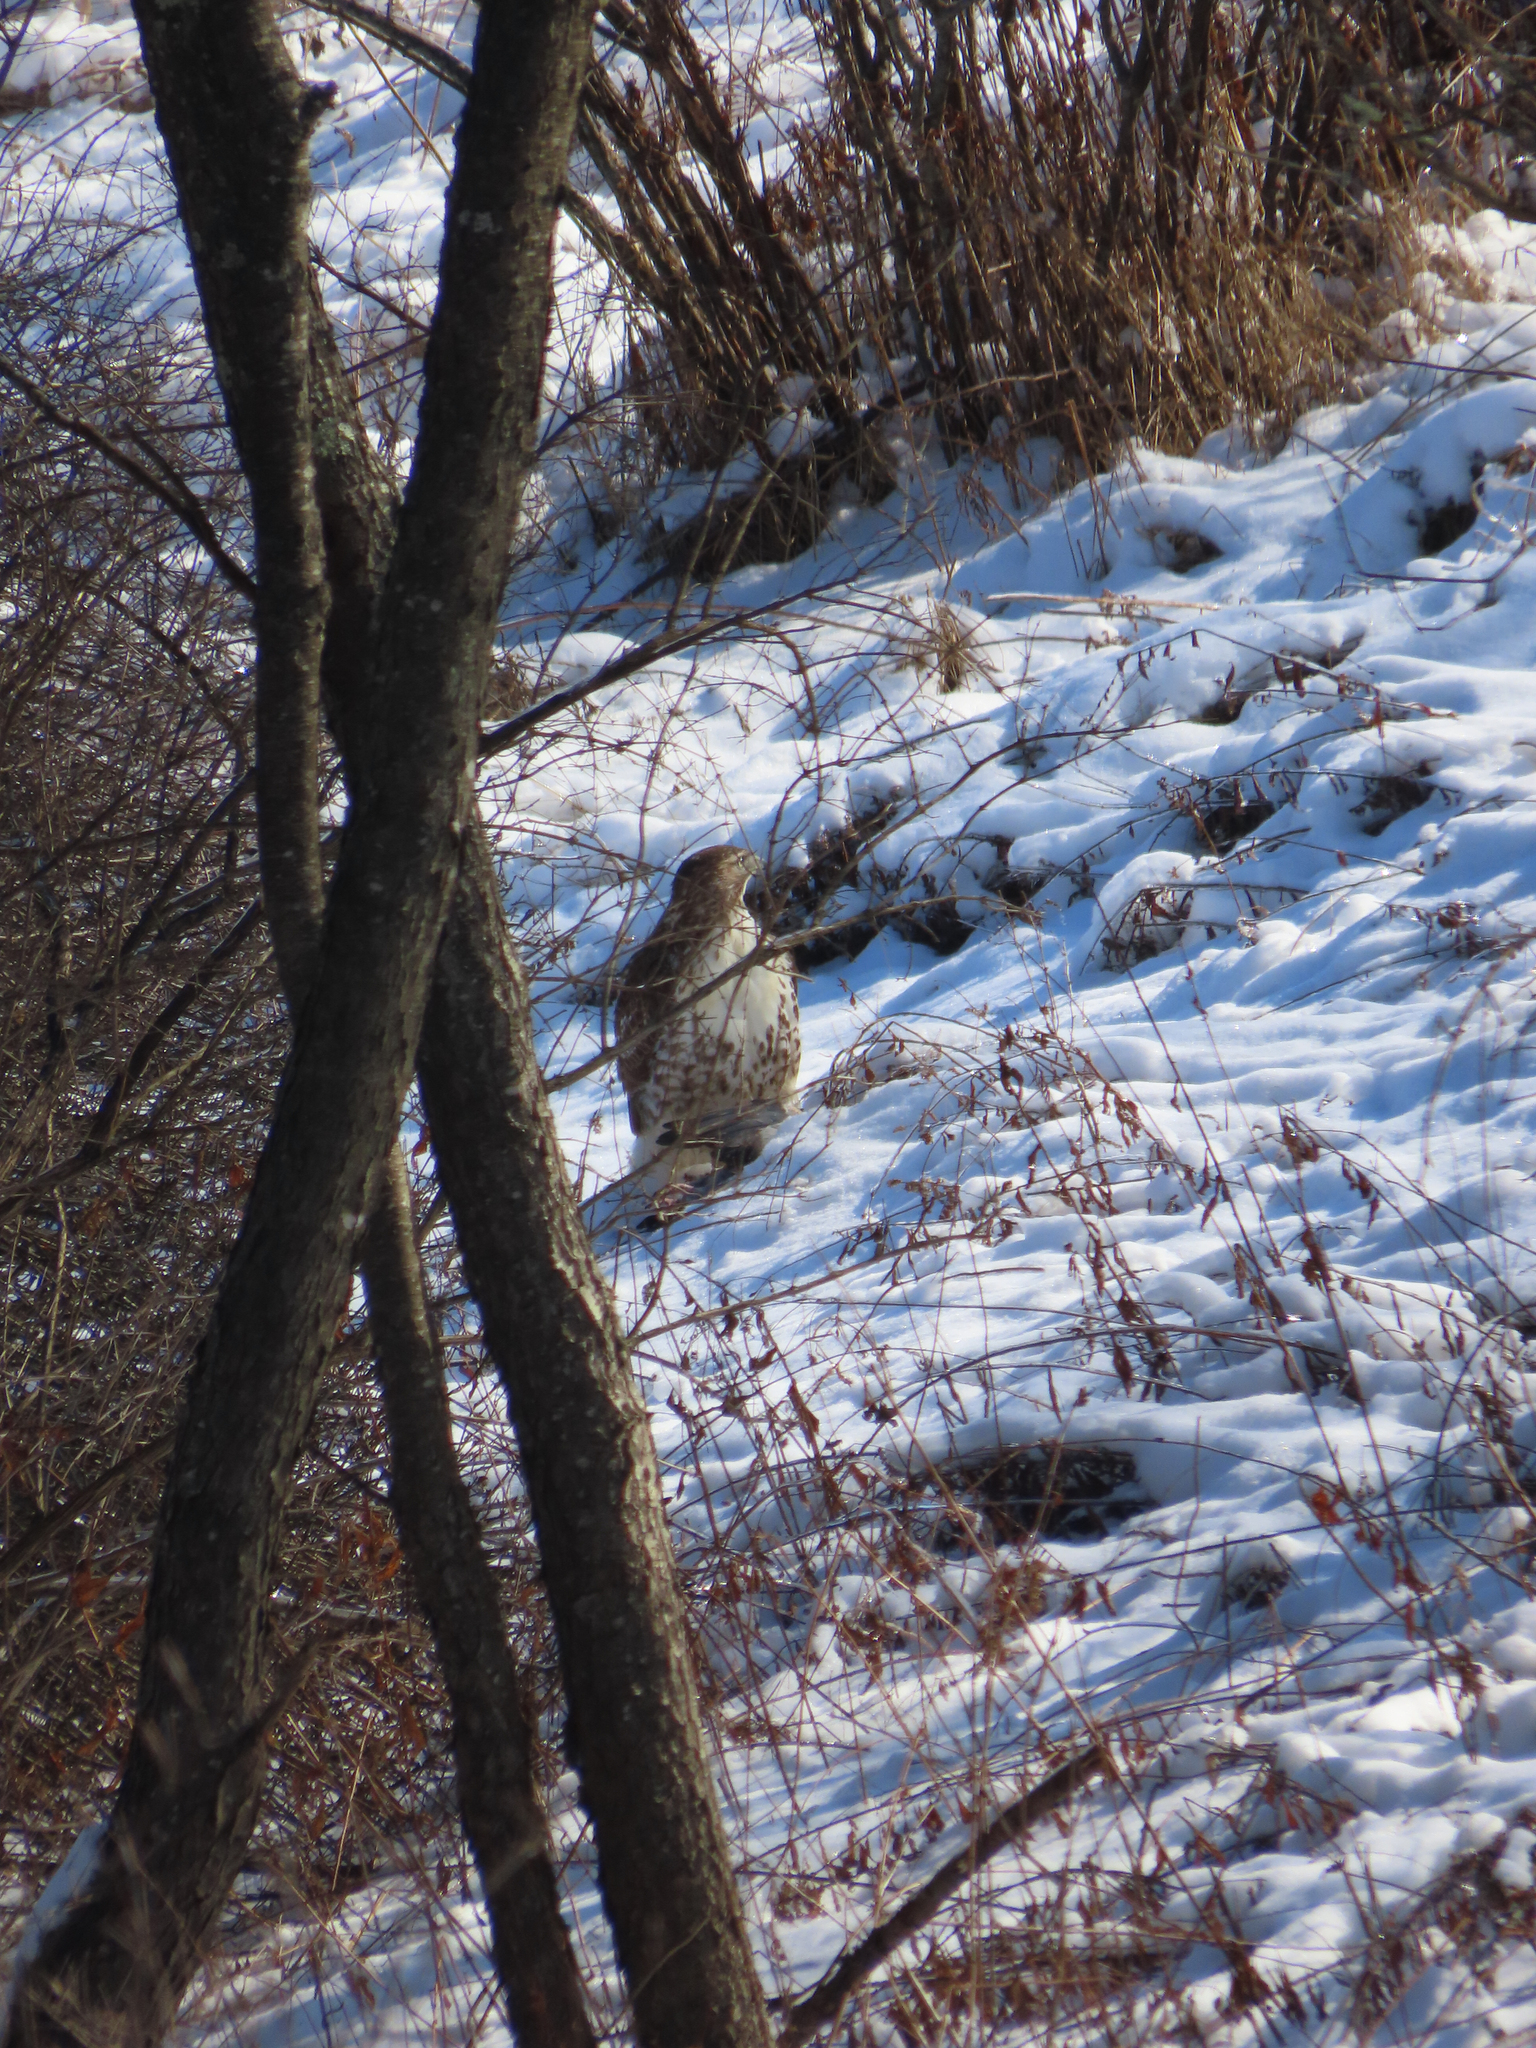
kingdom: Animalia
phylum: Chordata
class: Aves
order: Accipitriformes
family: Accipitridae
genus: Buteo
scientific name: Buteo jamaicensis
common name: Red-tailed hawk
